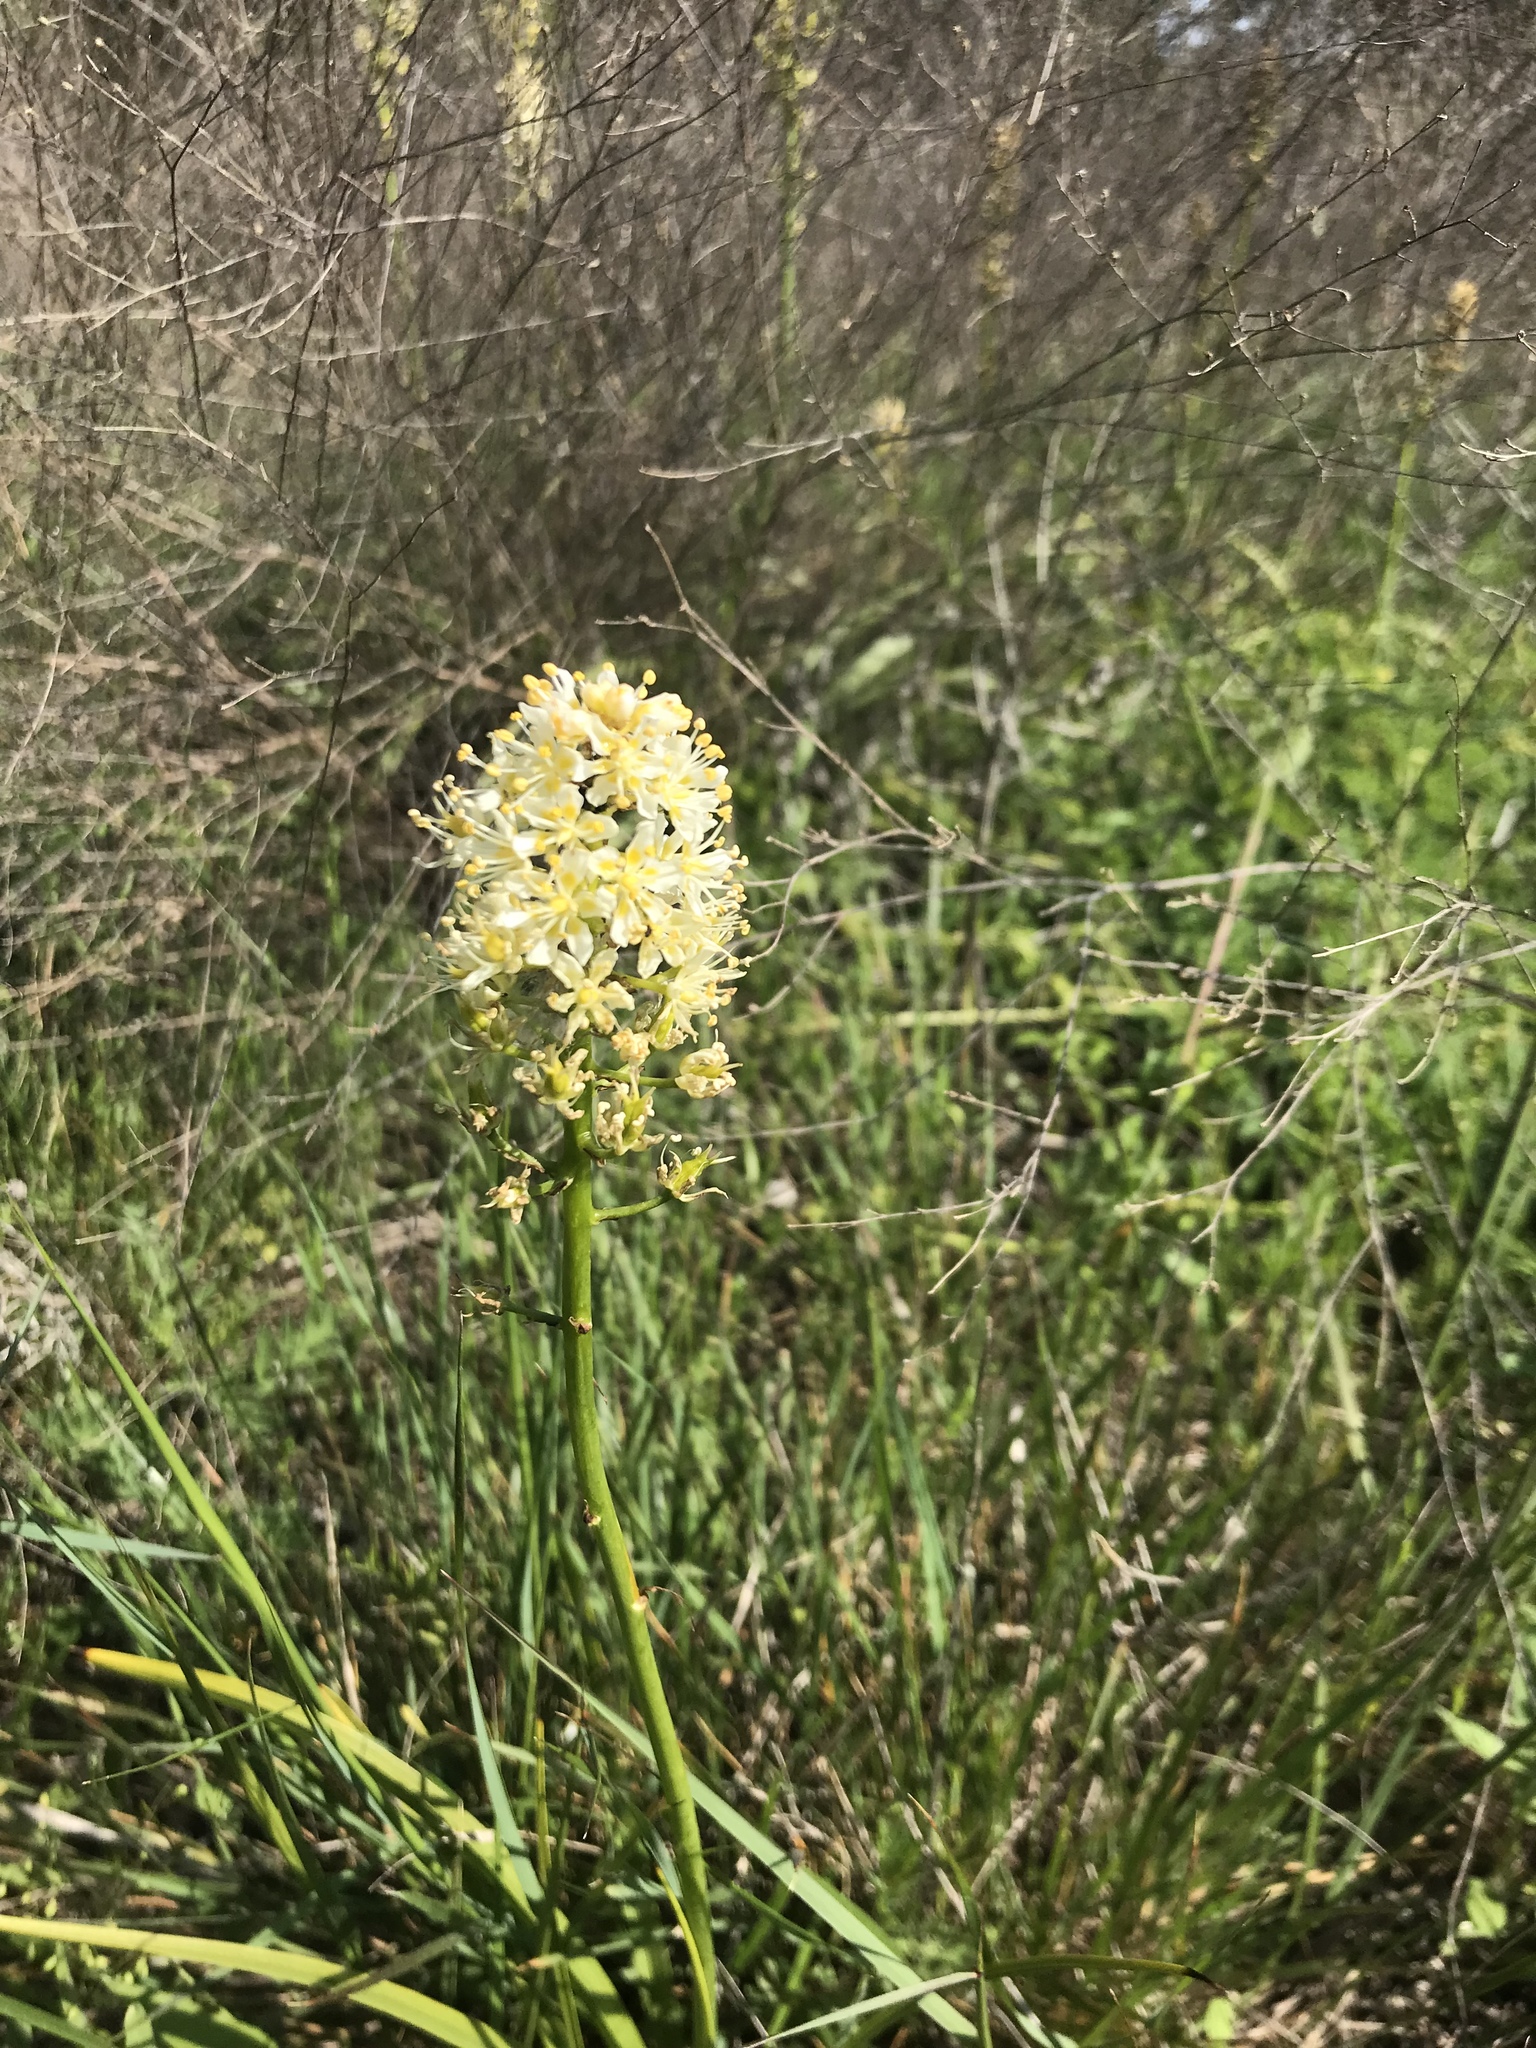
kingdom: Plantae
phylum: Tracheophyta
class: Liliopsida
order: Liliales
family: Melanthiaceae
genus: Toxicoscordion
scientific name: Toxicoscordion nuttallii
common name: Poison sego
